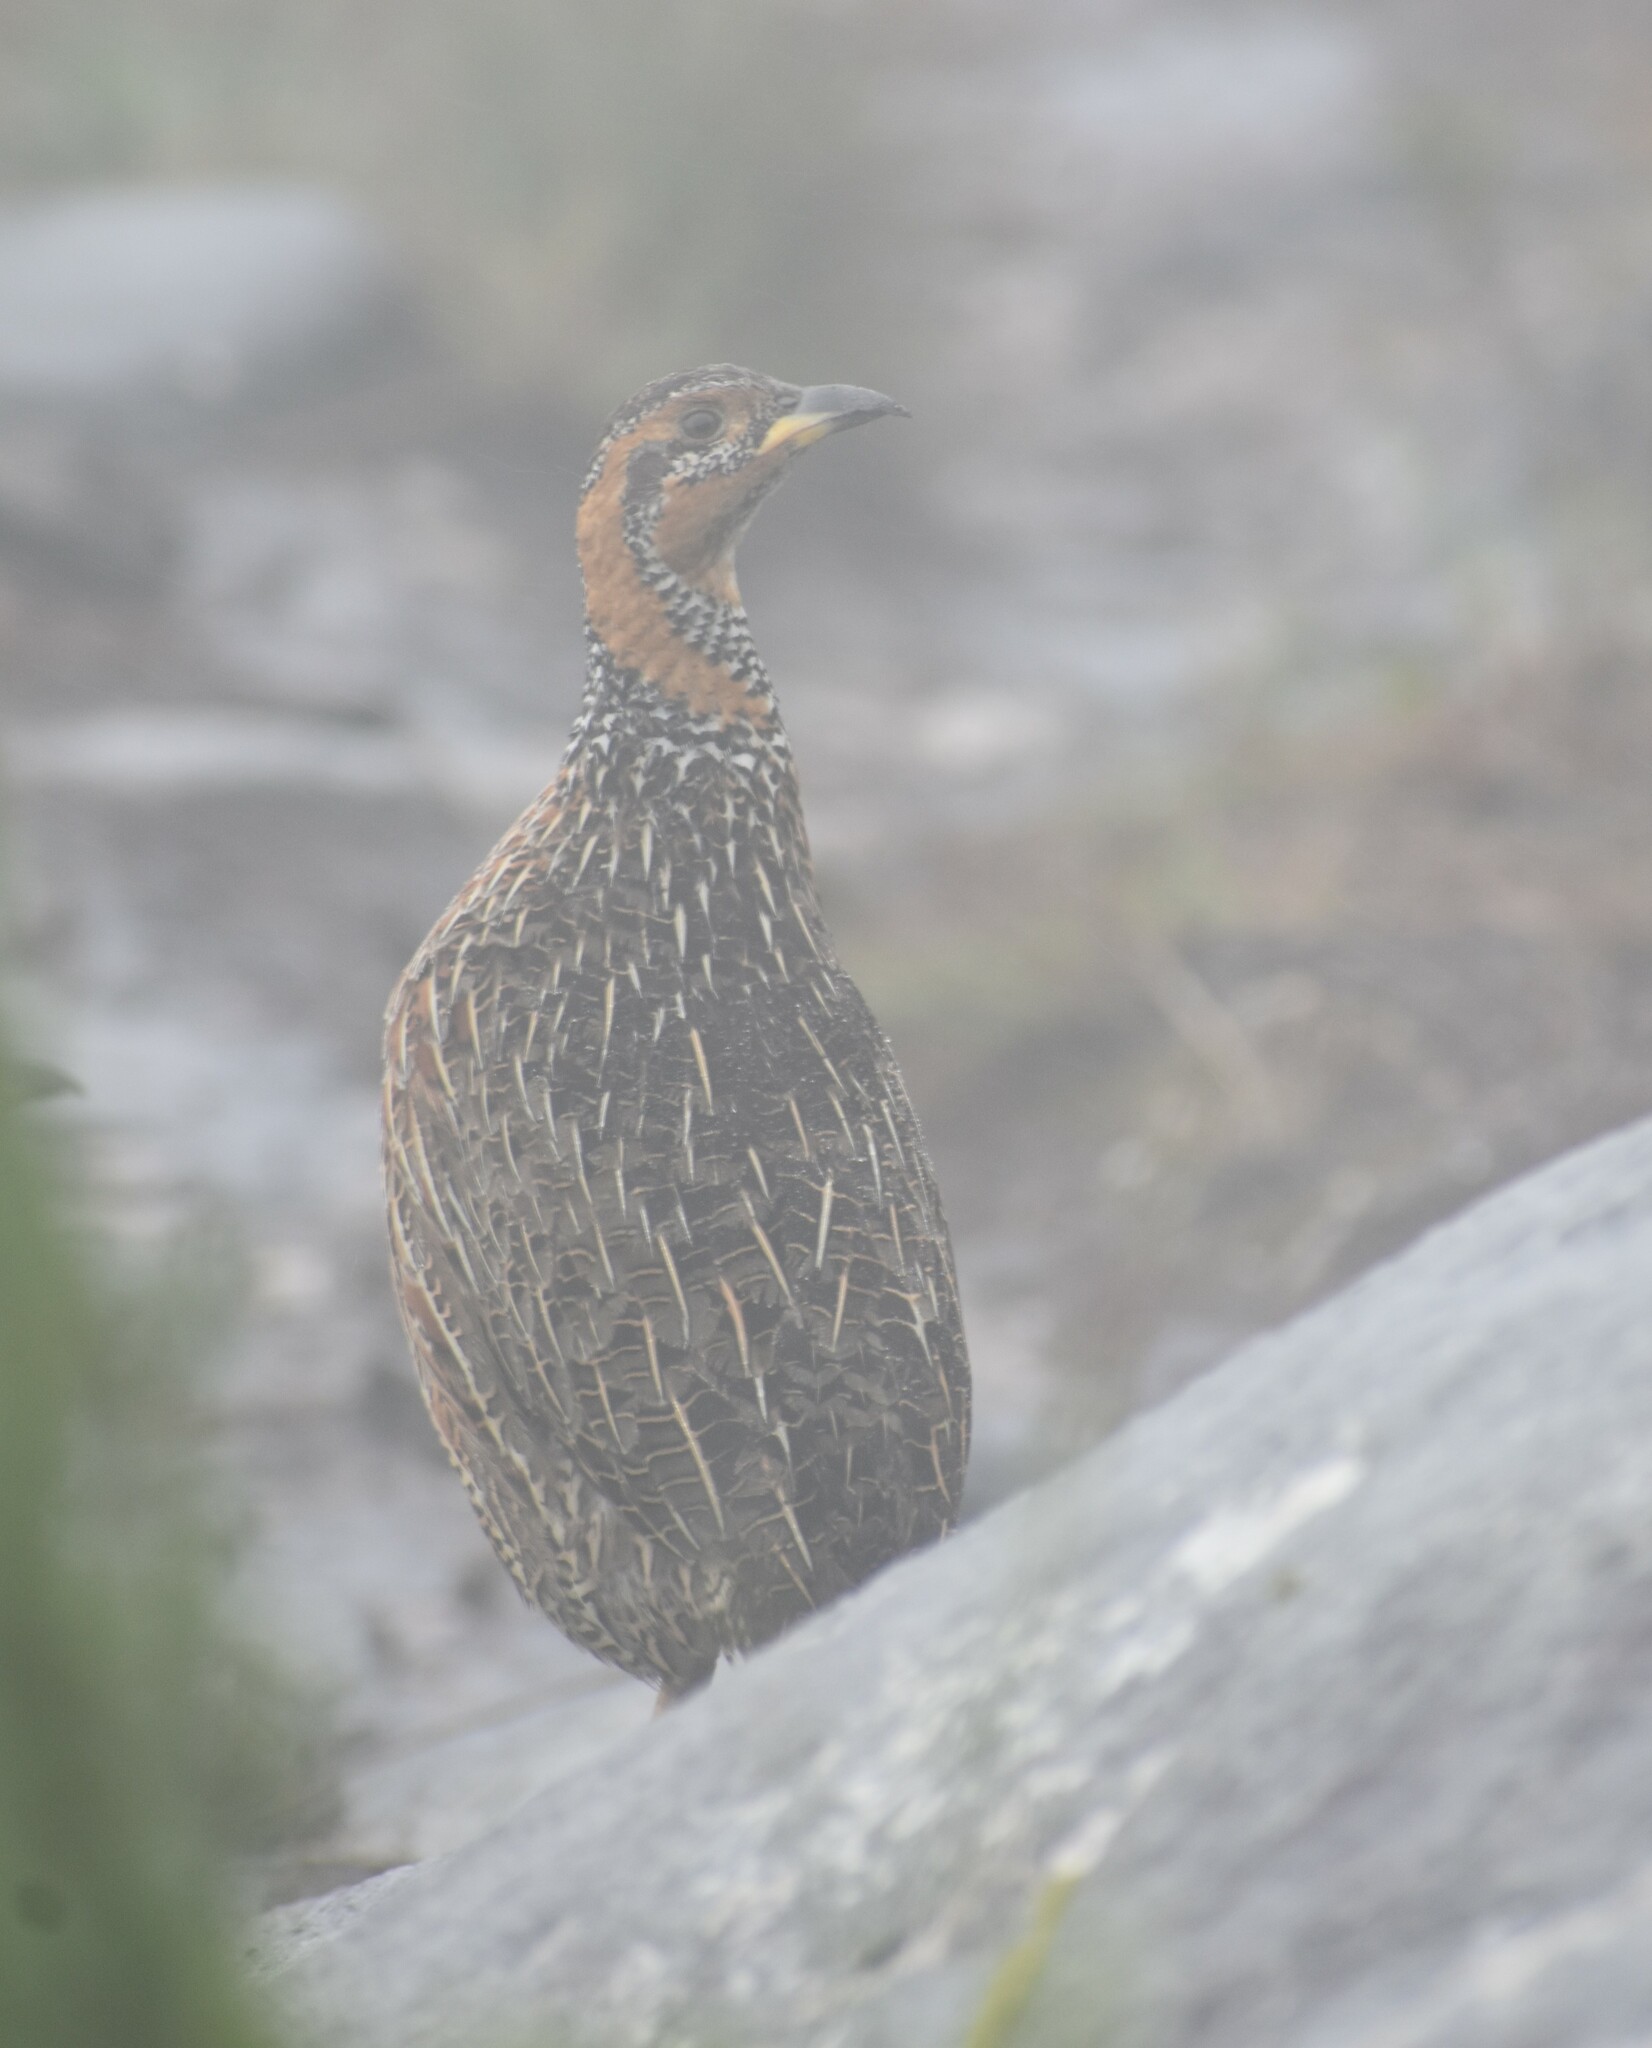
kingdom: Animalia
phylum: Chordata
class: Aves
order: Galliformes
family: Phasianidae
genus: Scleroptila
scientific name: Scleroptila levaillantii
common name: Red-winged francolin
